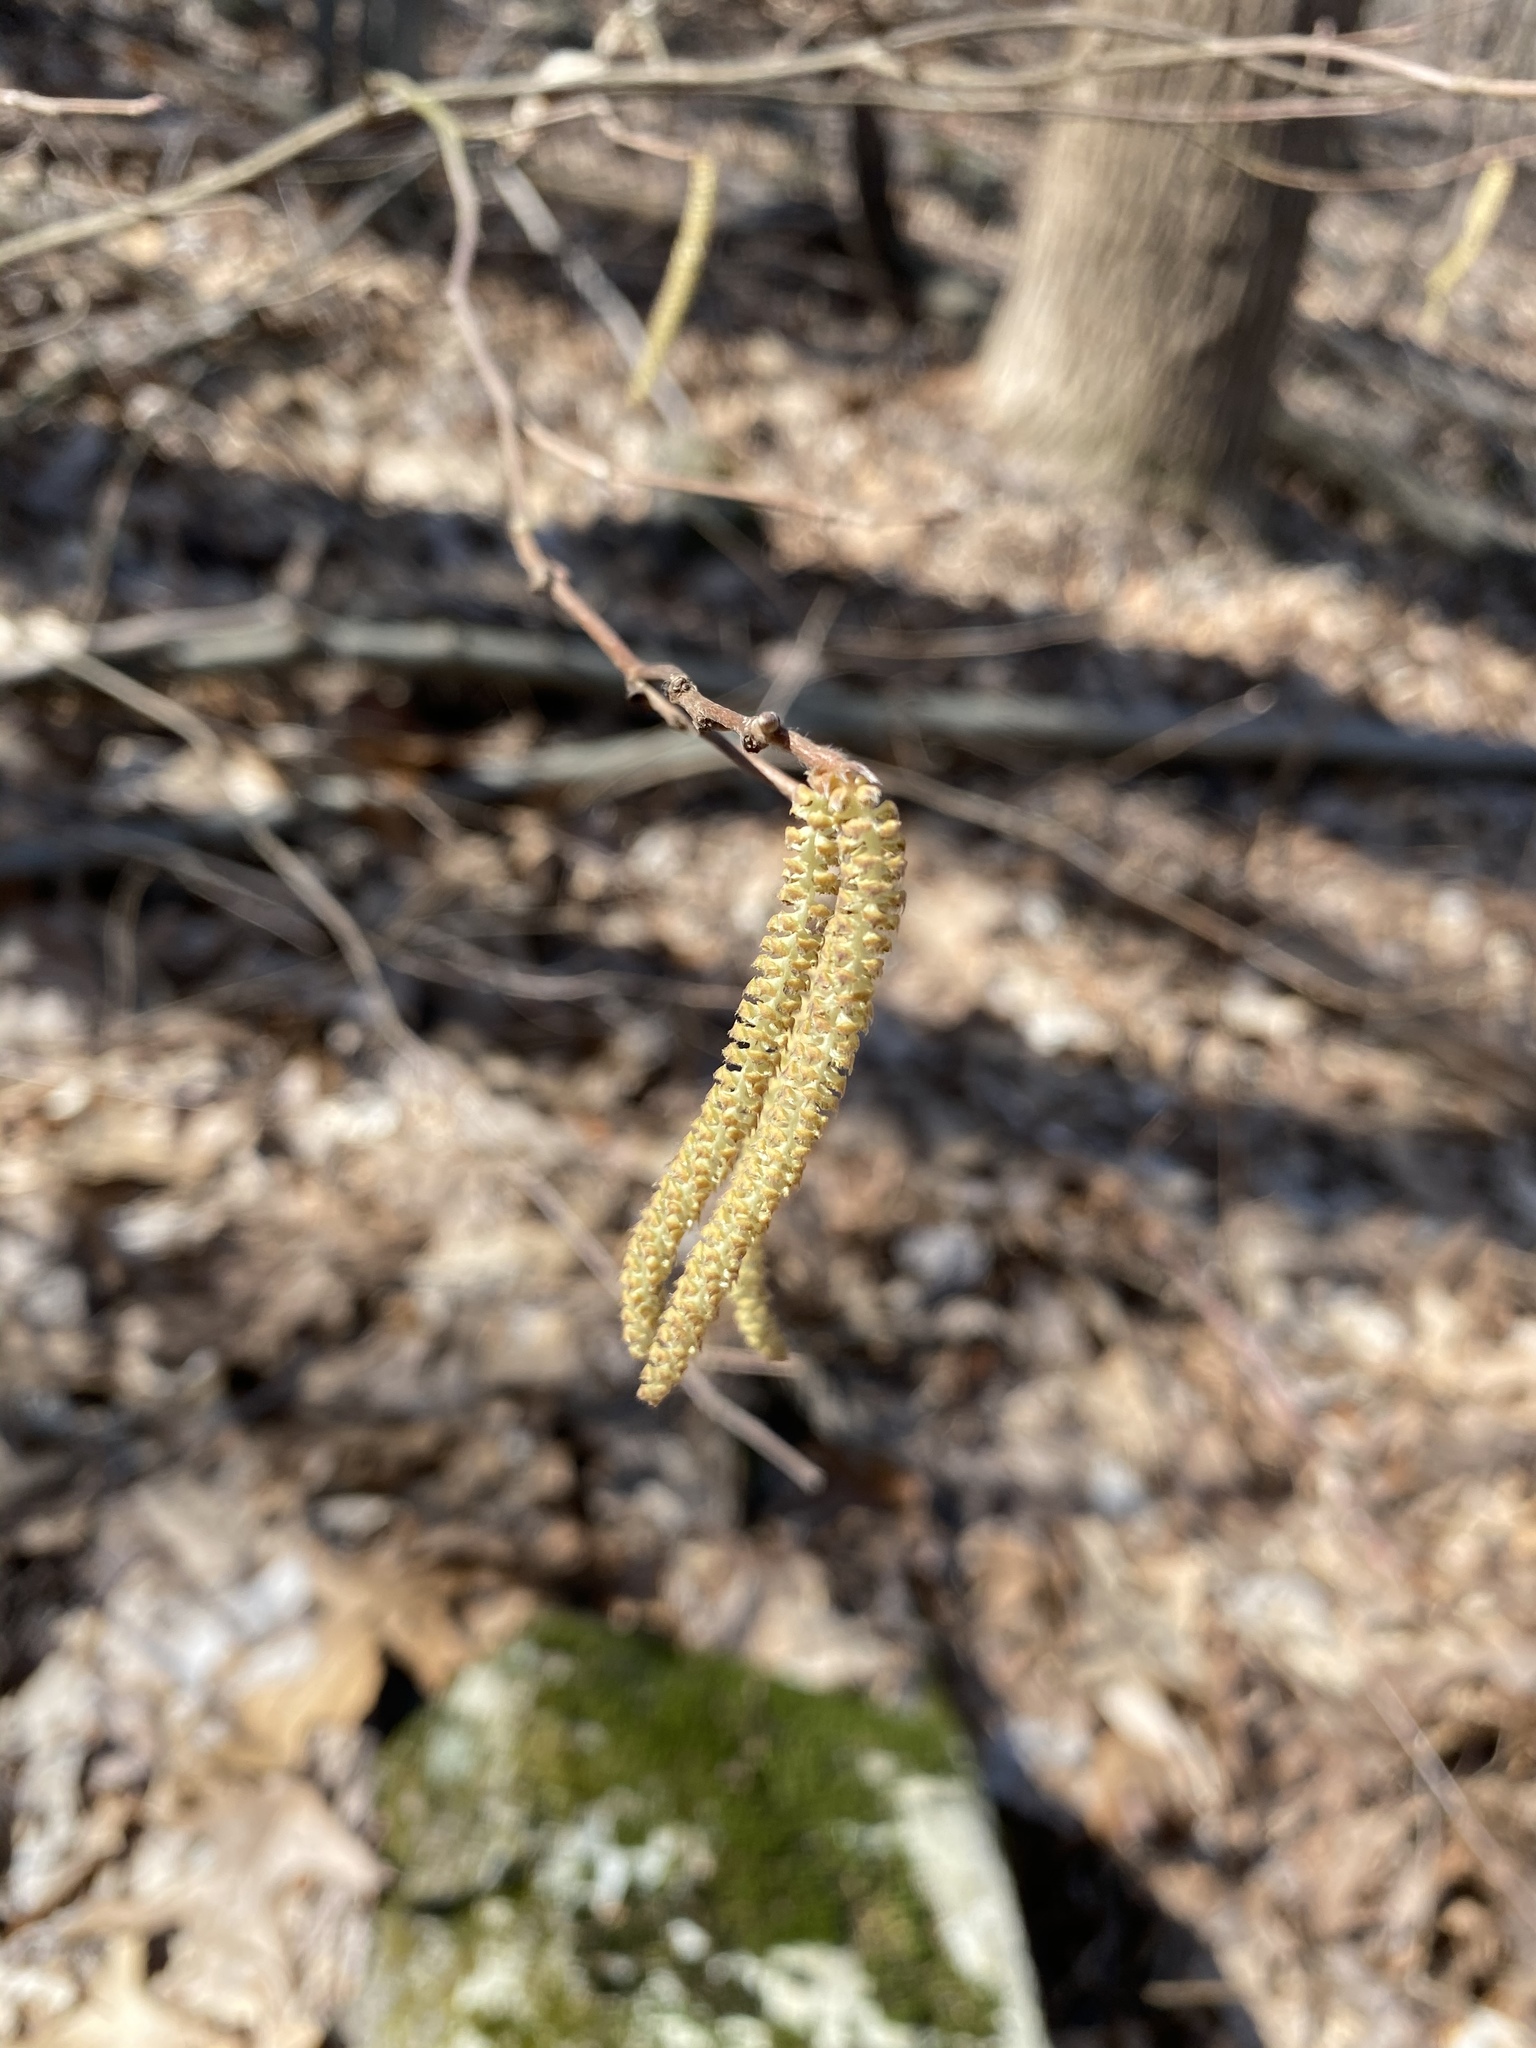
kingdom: Plantae
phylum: Tracheophyta
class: Magnoliopsida
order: Fagales
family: Betulaceae
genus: Corylus
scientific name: Corylus americana
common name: American hazel
